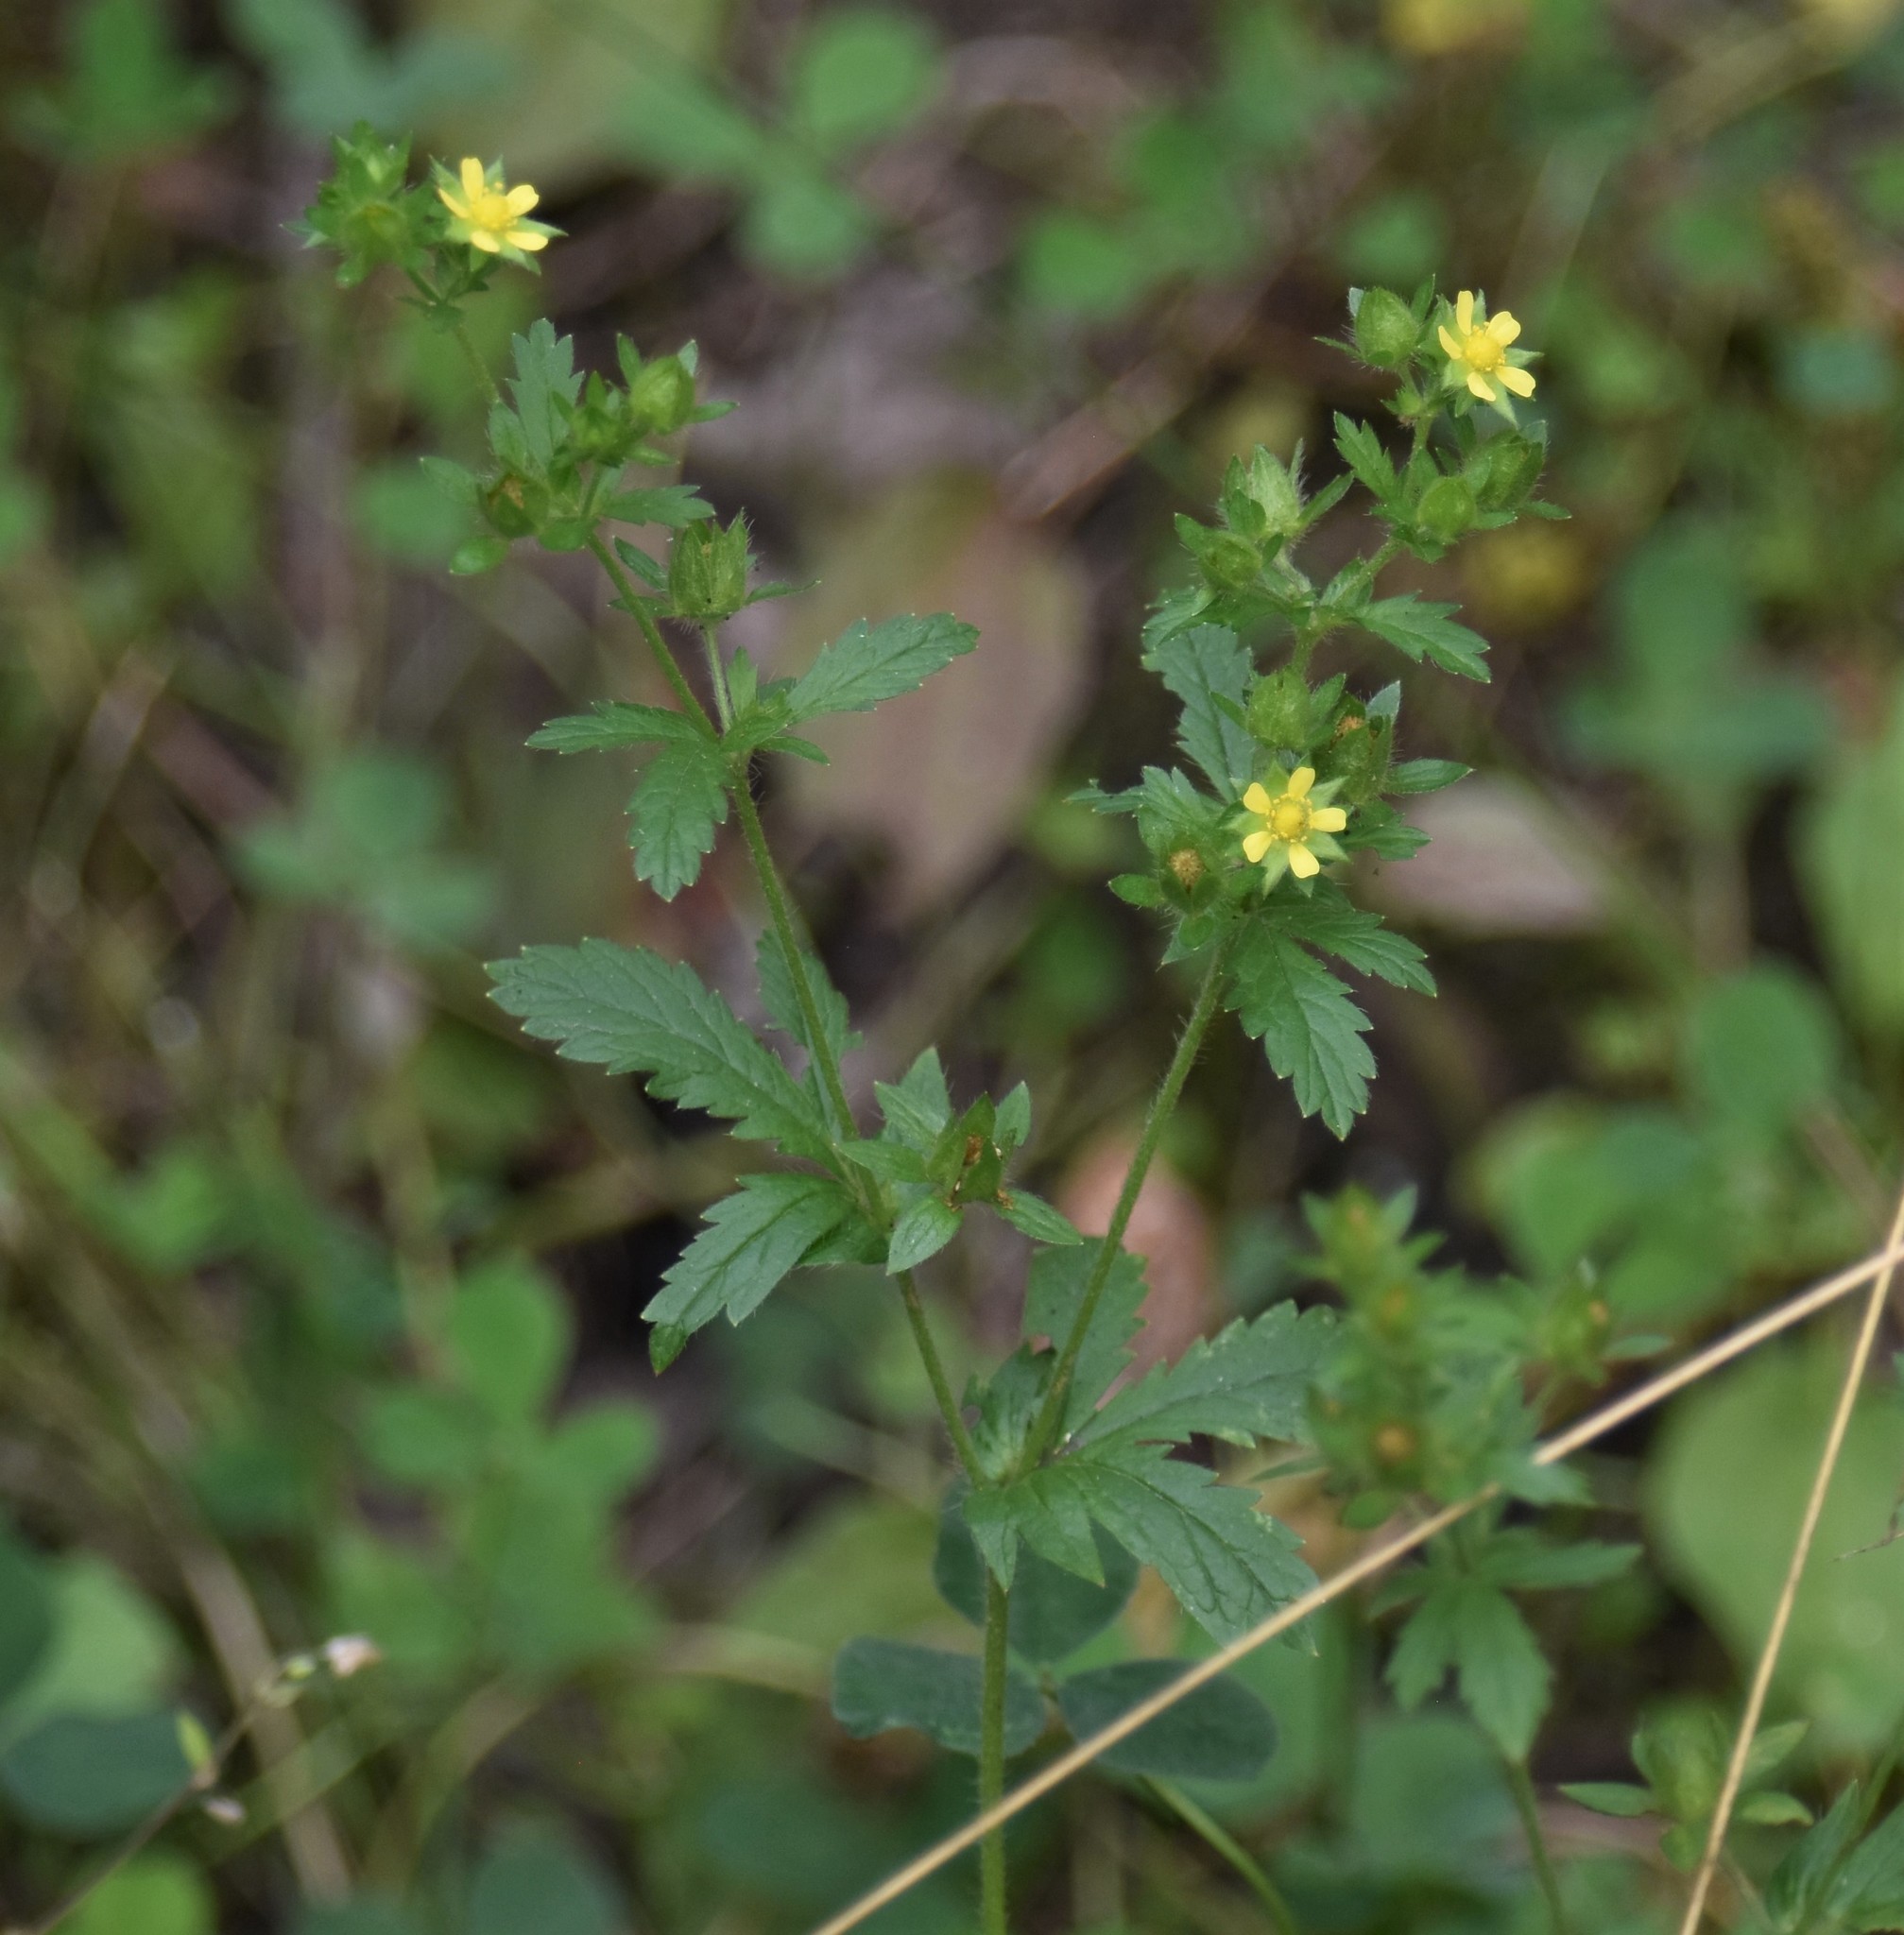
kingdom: Plantae
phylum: Tracheophyta
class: Magnoliopsida
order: Rosales
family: Rosaceae
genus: Potentilla
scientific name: Potentilla norvegica
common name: Ternate-leaved cinquefoil
